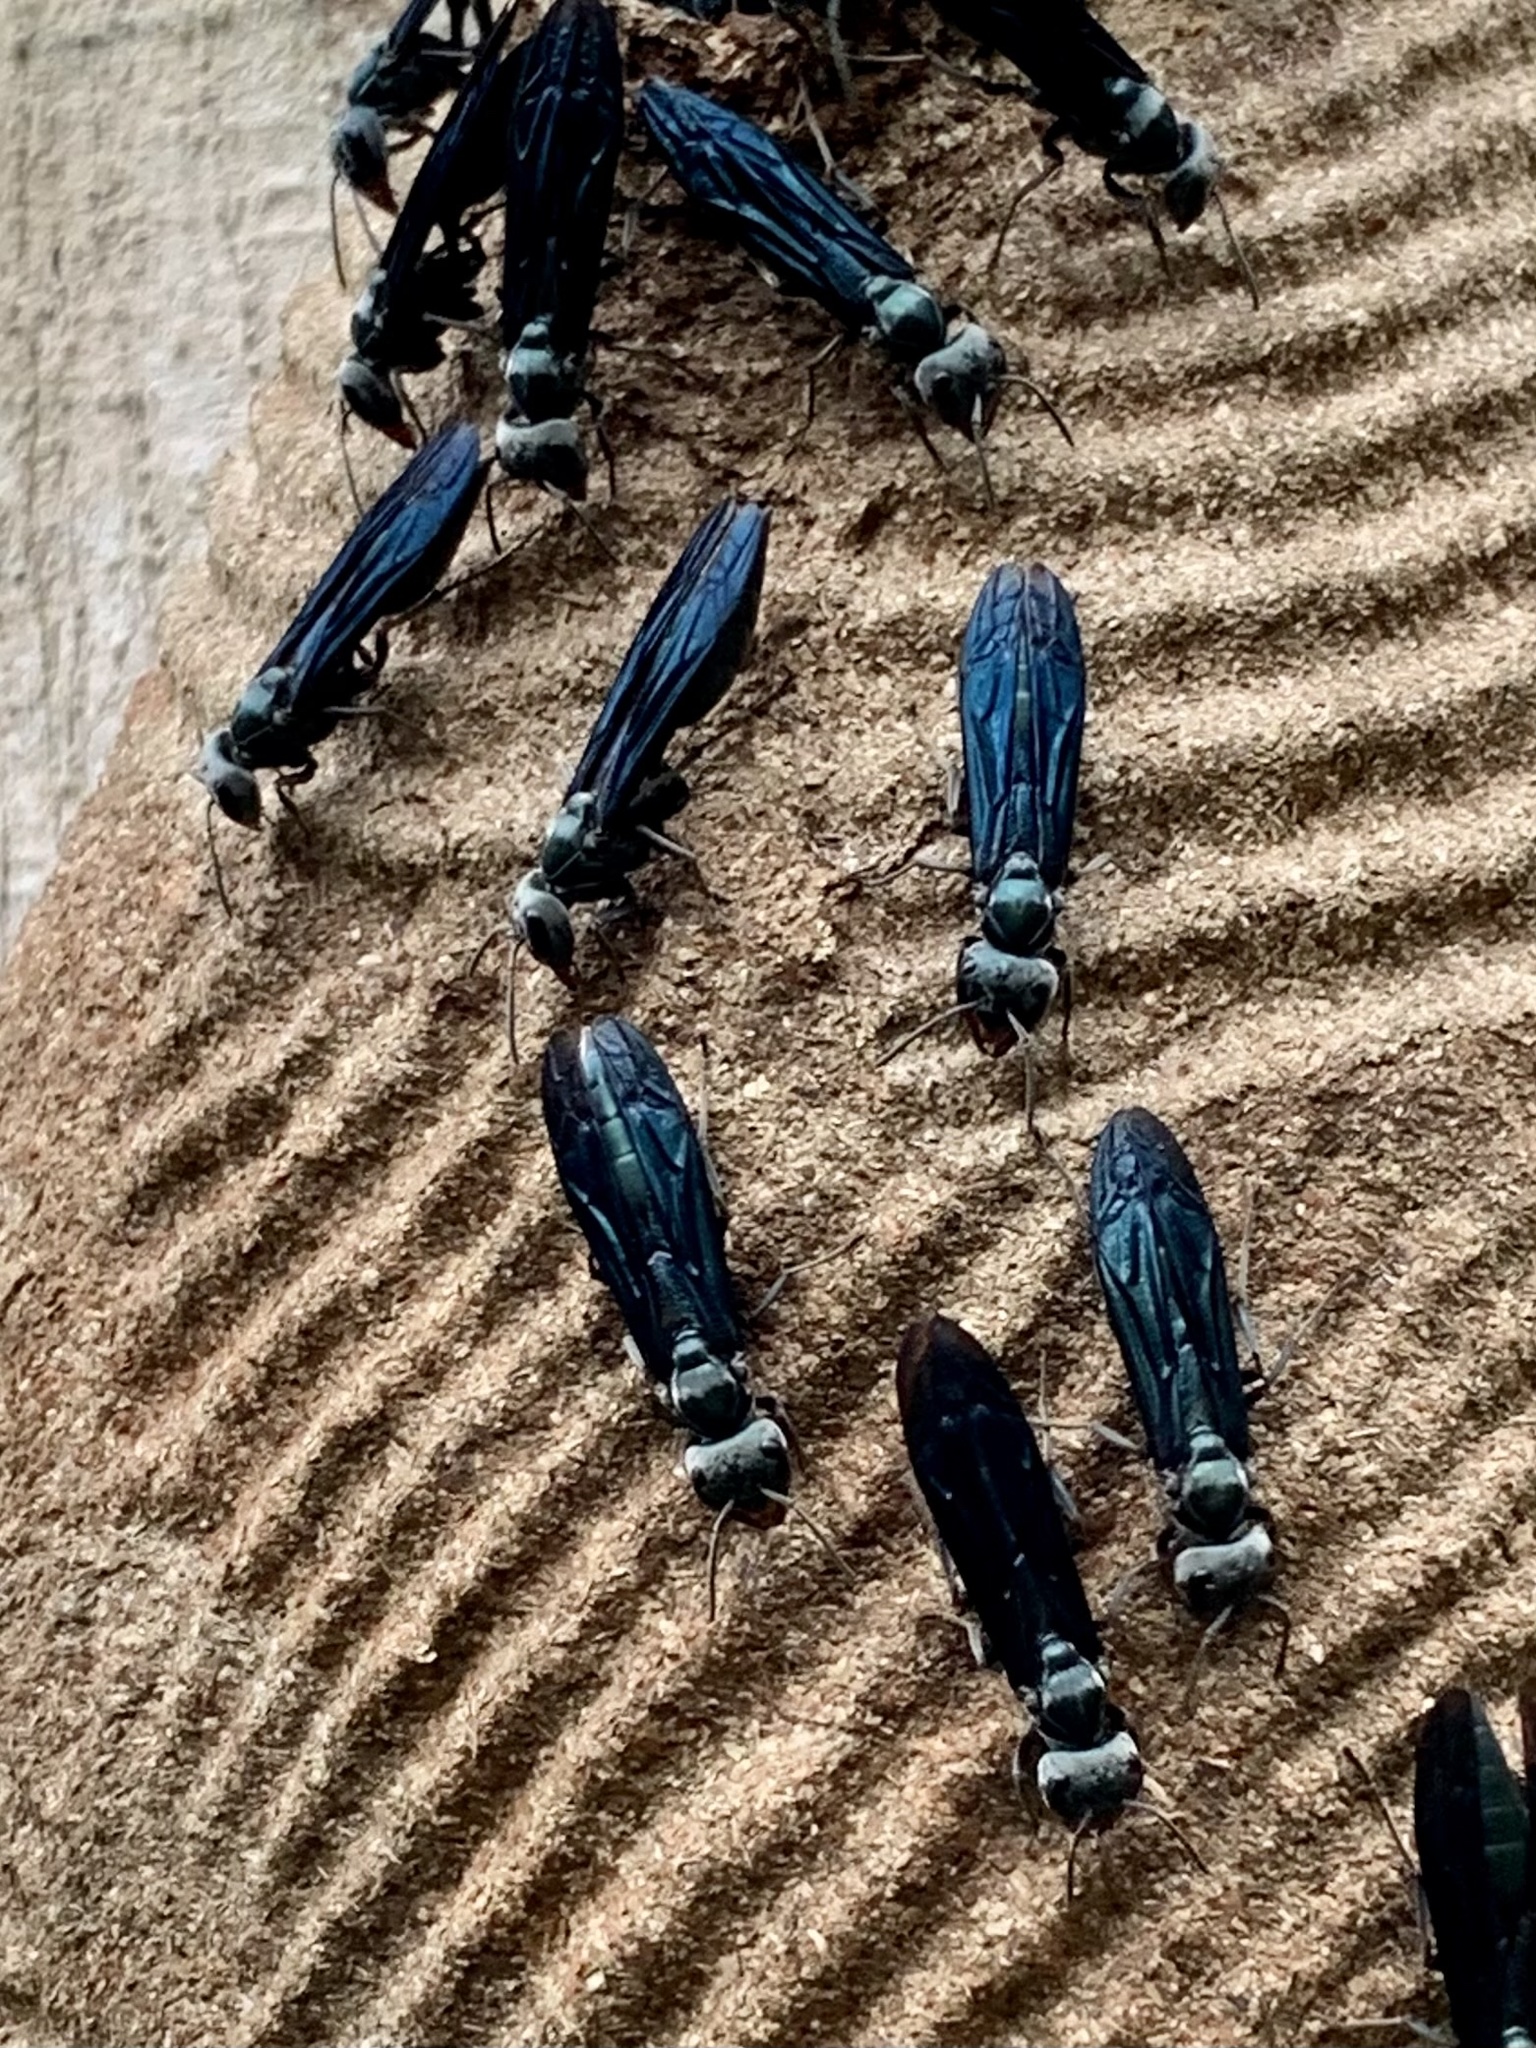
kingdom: Animalia
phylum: Arthropoda
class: Insecta
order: Hymenoptera
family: Vespidae
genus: Synoeca
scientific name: Synoeca septentrionalis
